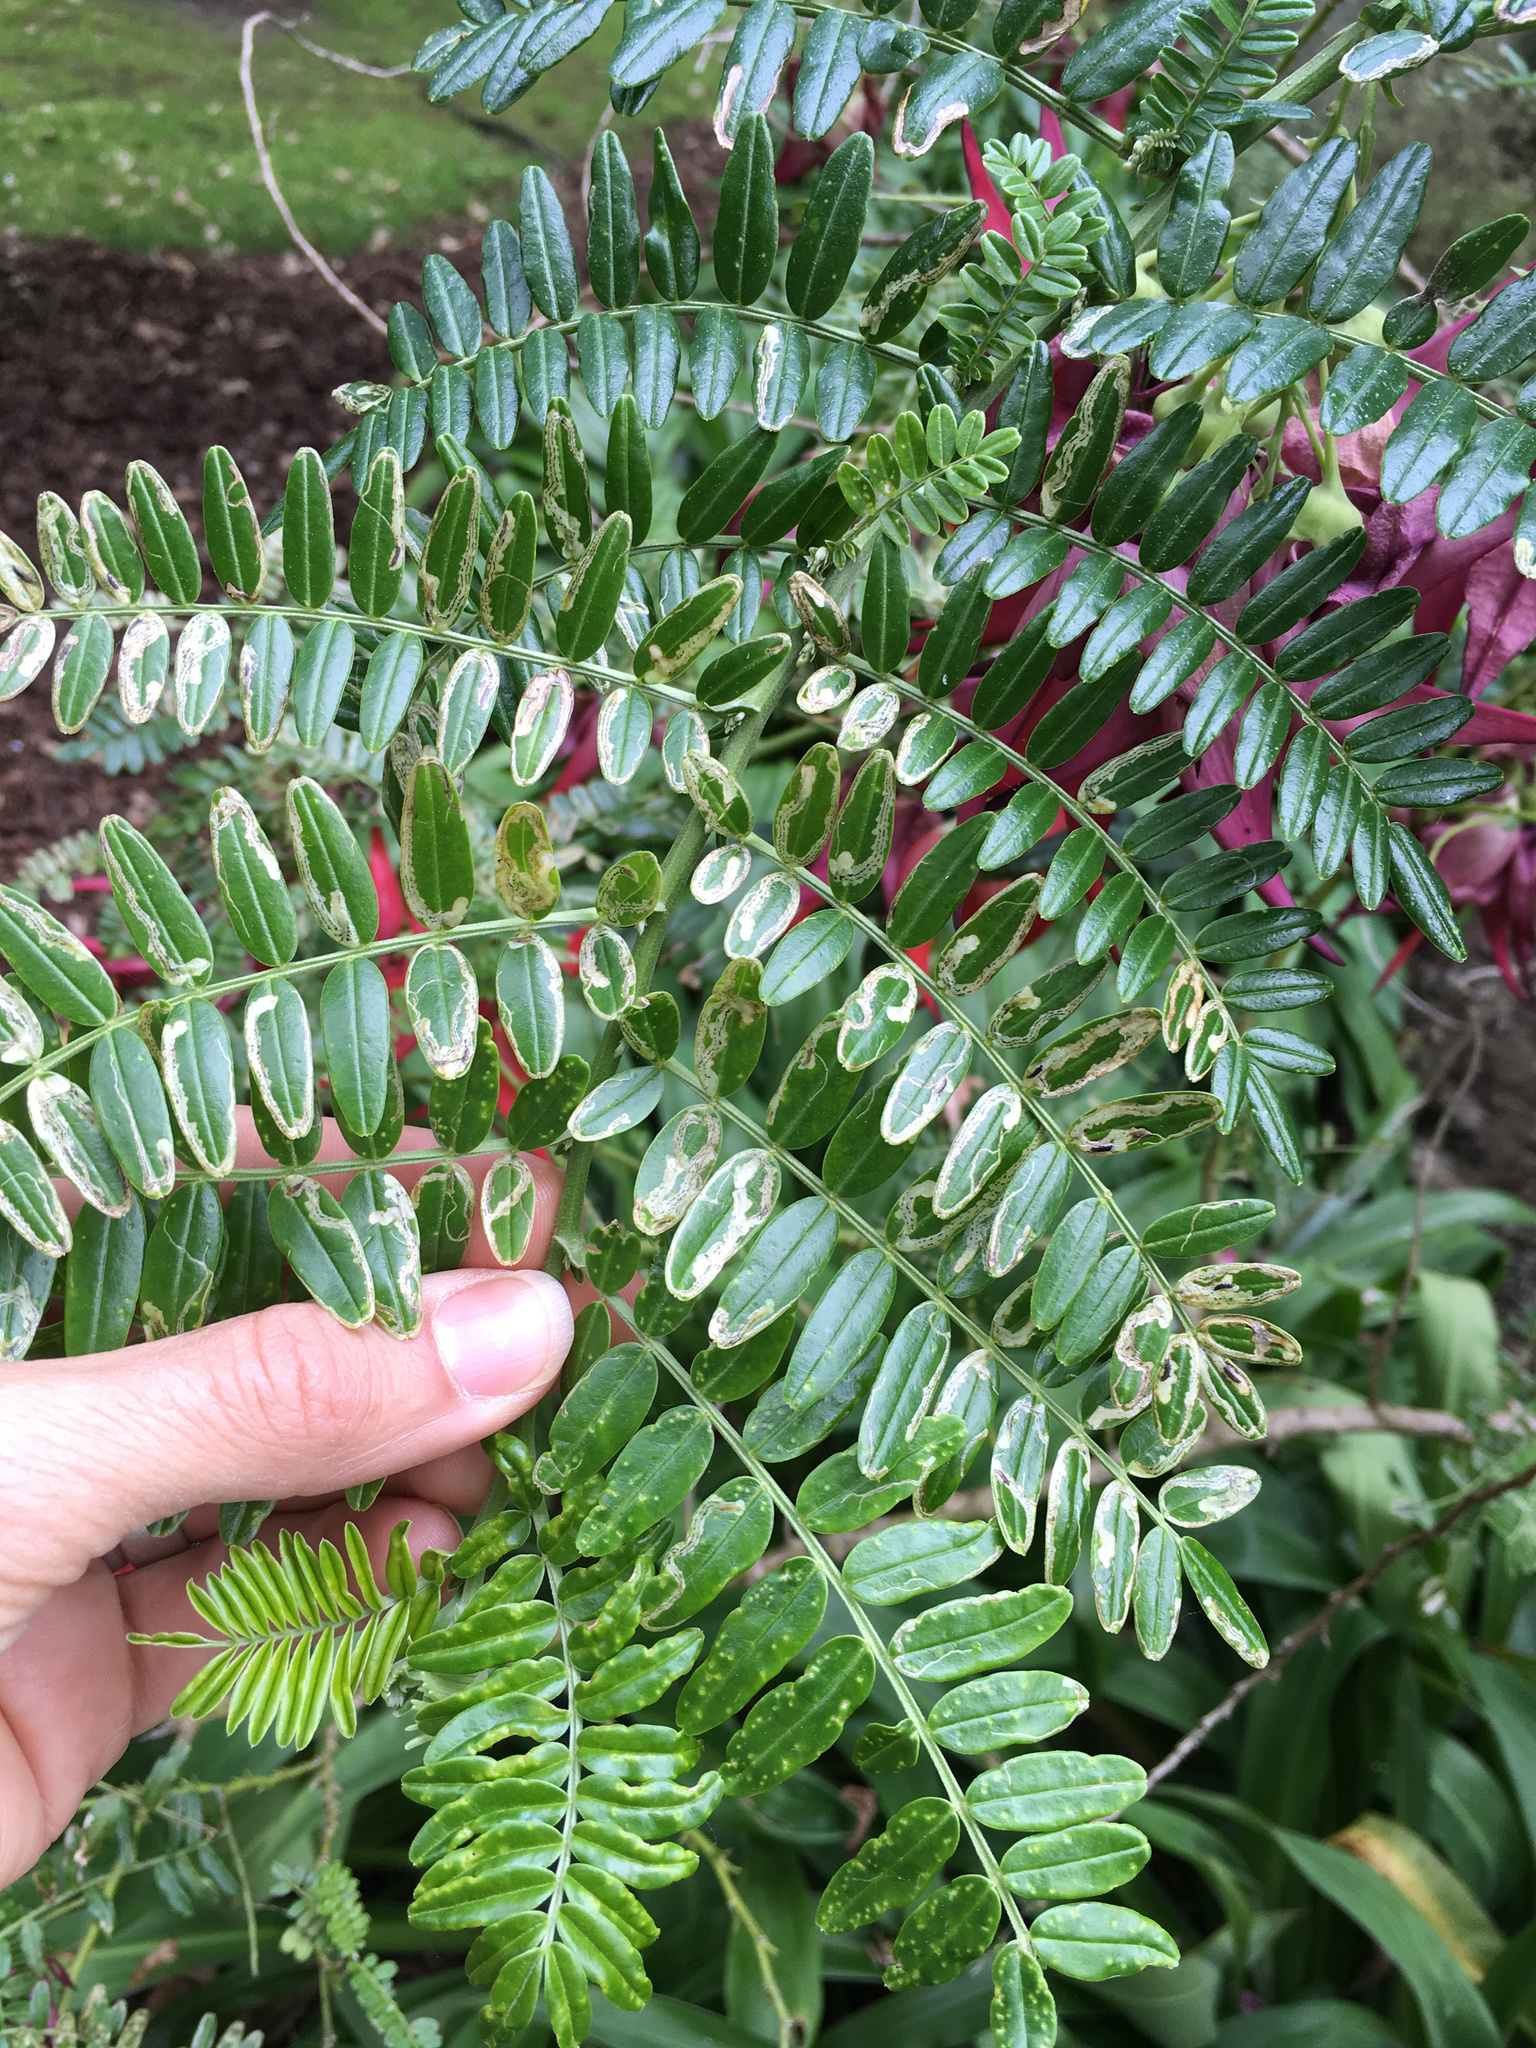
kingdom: Animalia
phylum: Arthropoda
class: Insecta
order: Diptera
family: Agromyzidae
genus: Liriomyza
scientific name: Liriomyza clianthi
